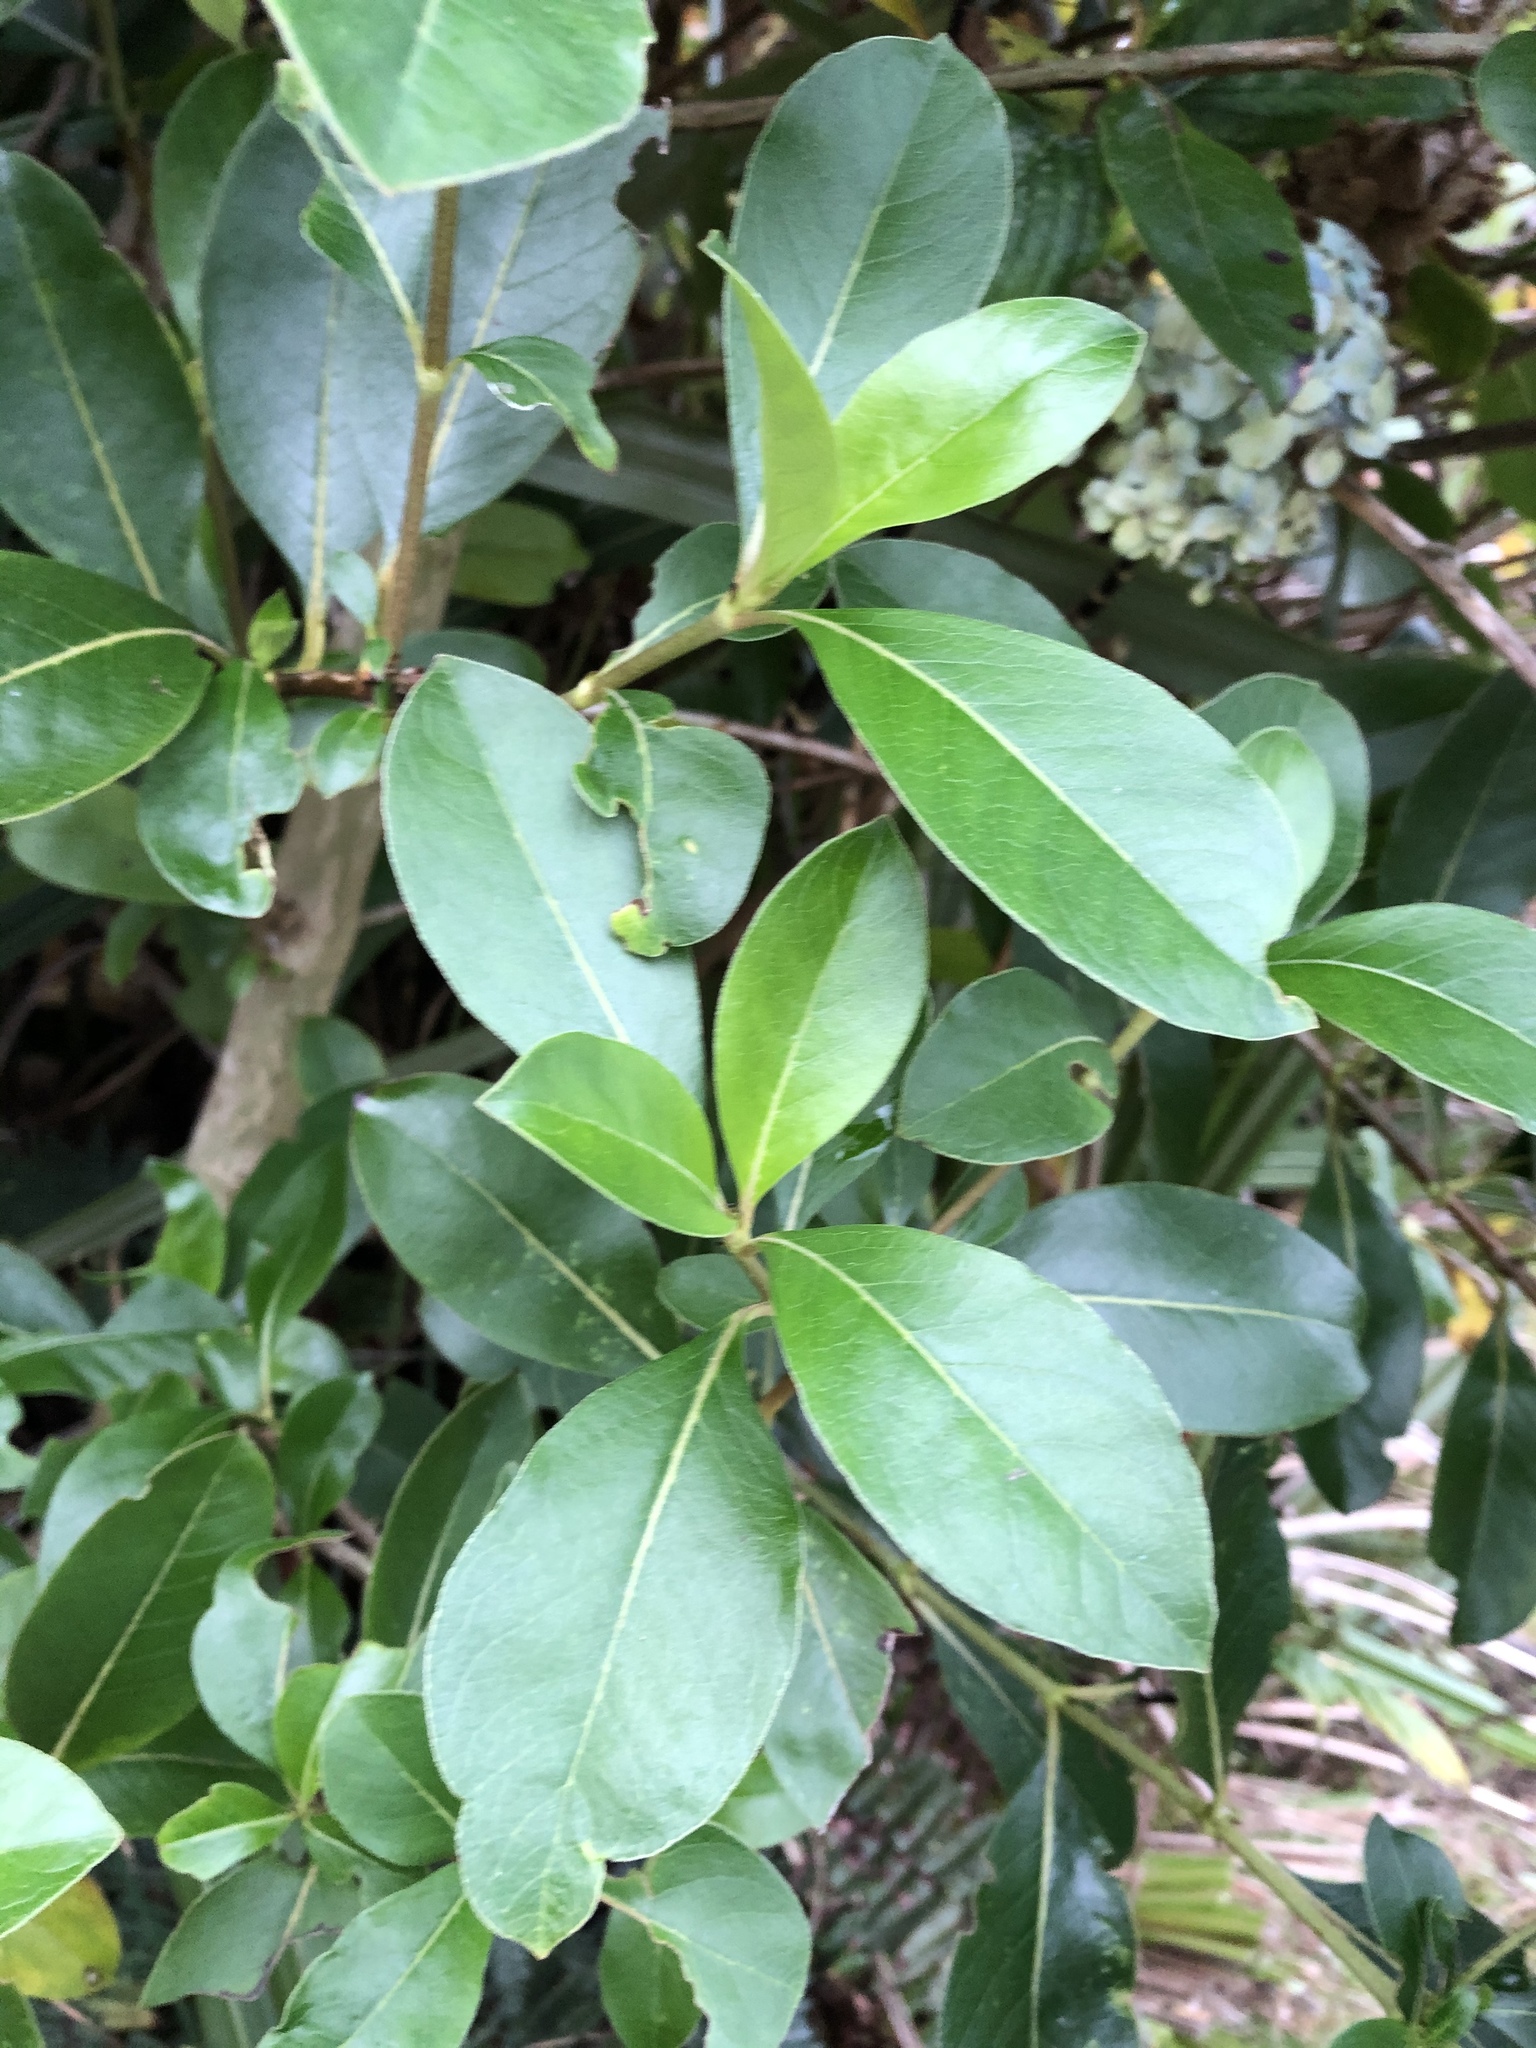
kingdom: Plantae
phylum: Tracheophyta
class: Magnoliopsida
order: Gentianales
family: Rubiaceae
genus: Coprosma
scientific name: Coprosma robusta
